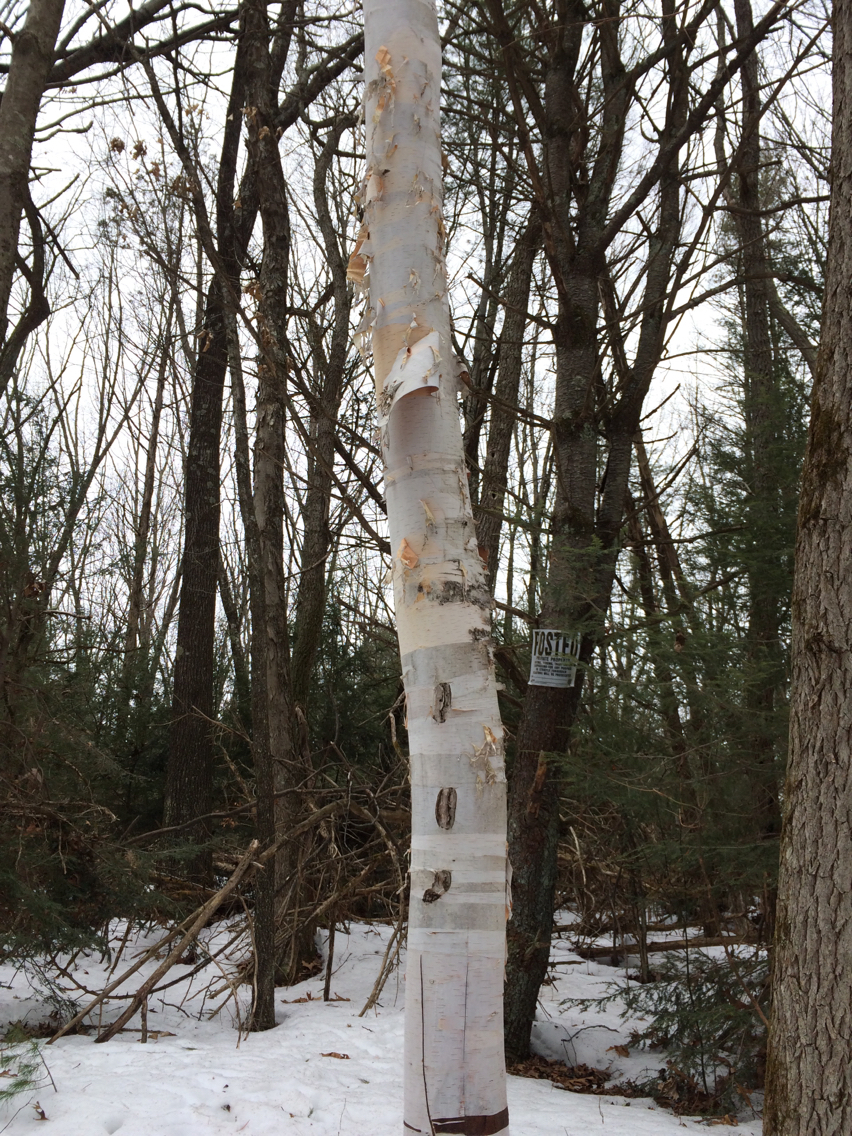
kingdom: Plantae
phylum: Tracheophyta
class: Magnoliopsida
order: Fagales
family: Betulaceae
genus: Betula
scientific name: Betula papyrifera
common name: Paper birch
